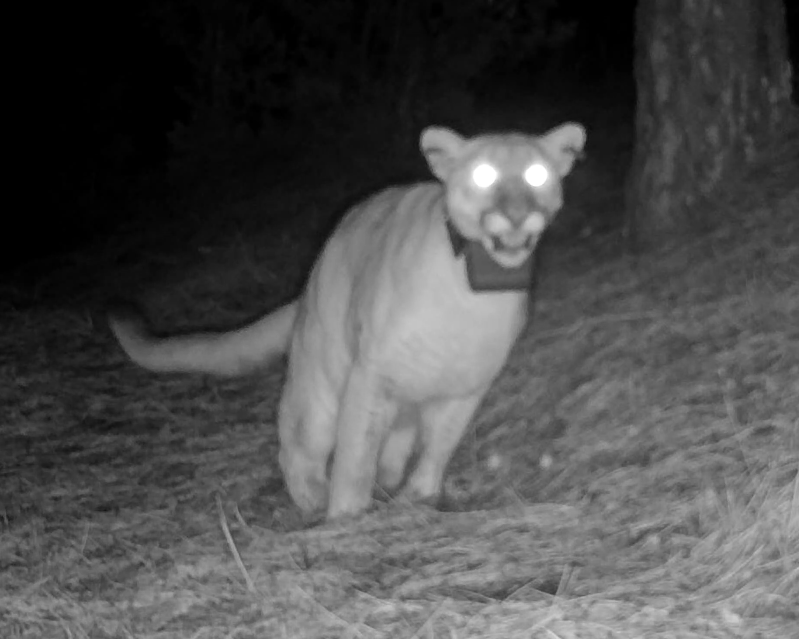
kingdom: Animalia
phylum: Chordata
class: Mammalia
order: Carnivora
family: Felidae
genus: Puma
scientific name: Puma concolor
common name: Puma
